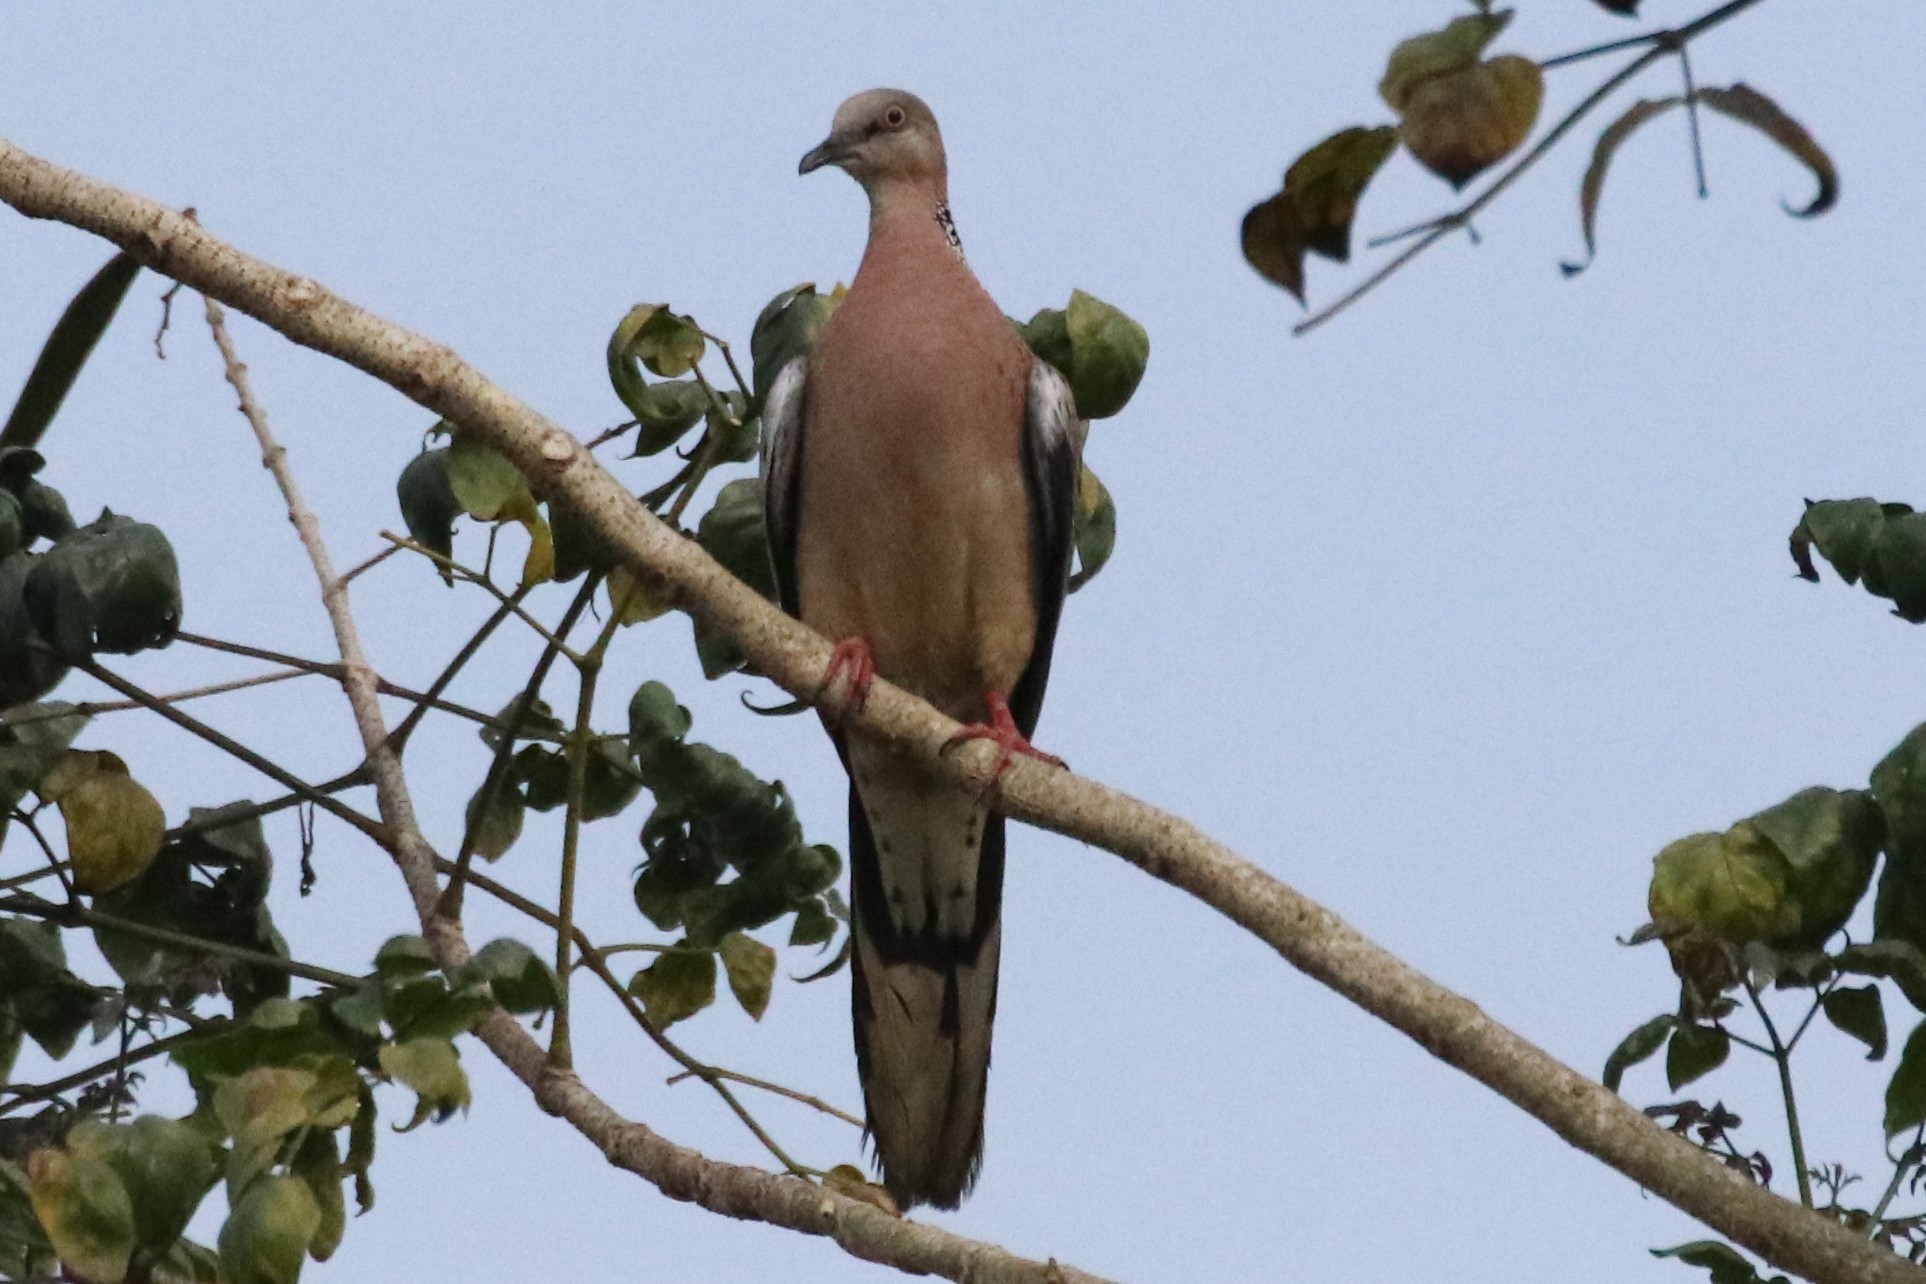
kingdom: Animalia
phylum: Chordata
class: Aves
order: Columbiformes
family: Columbidae
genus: Spilopelia
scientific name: Spilopelia chinensis
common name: Spotted dove
